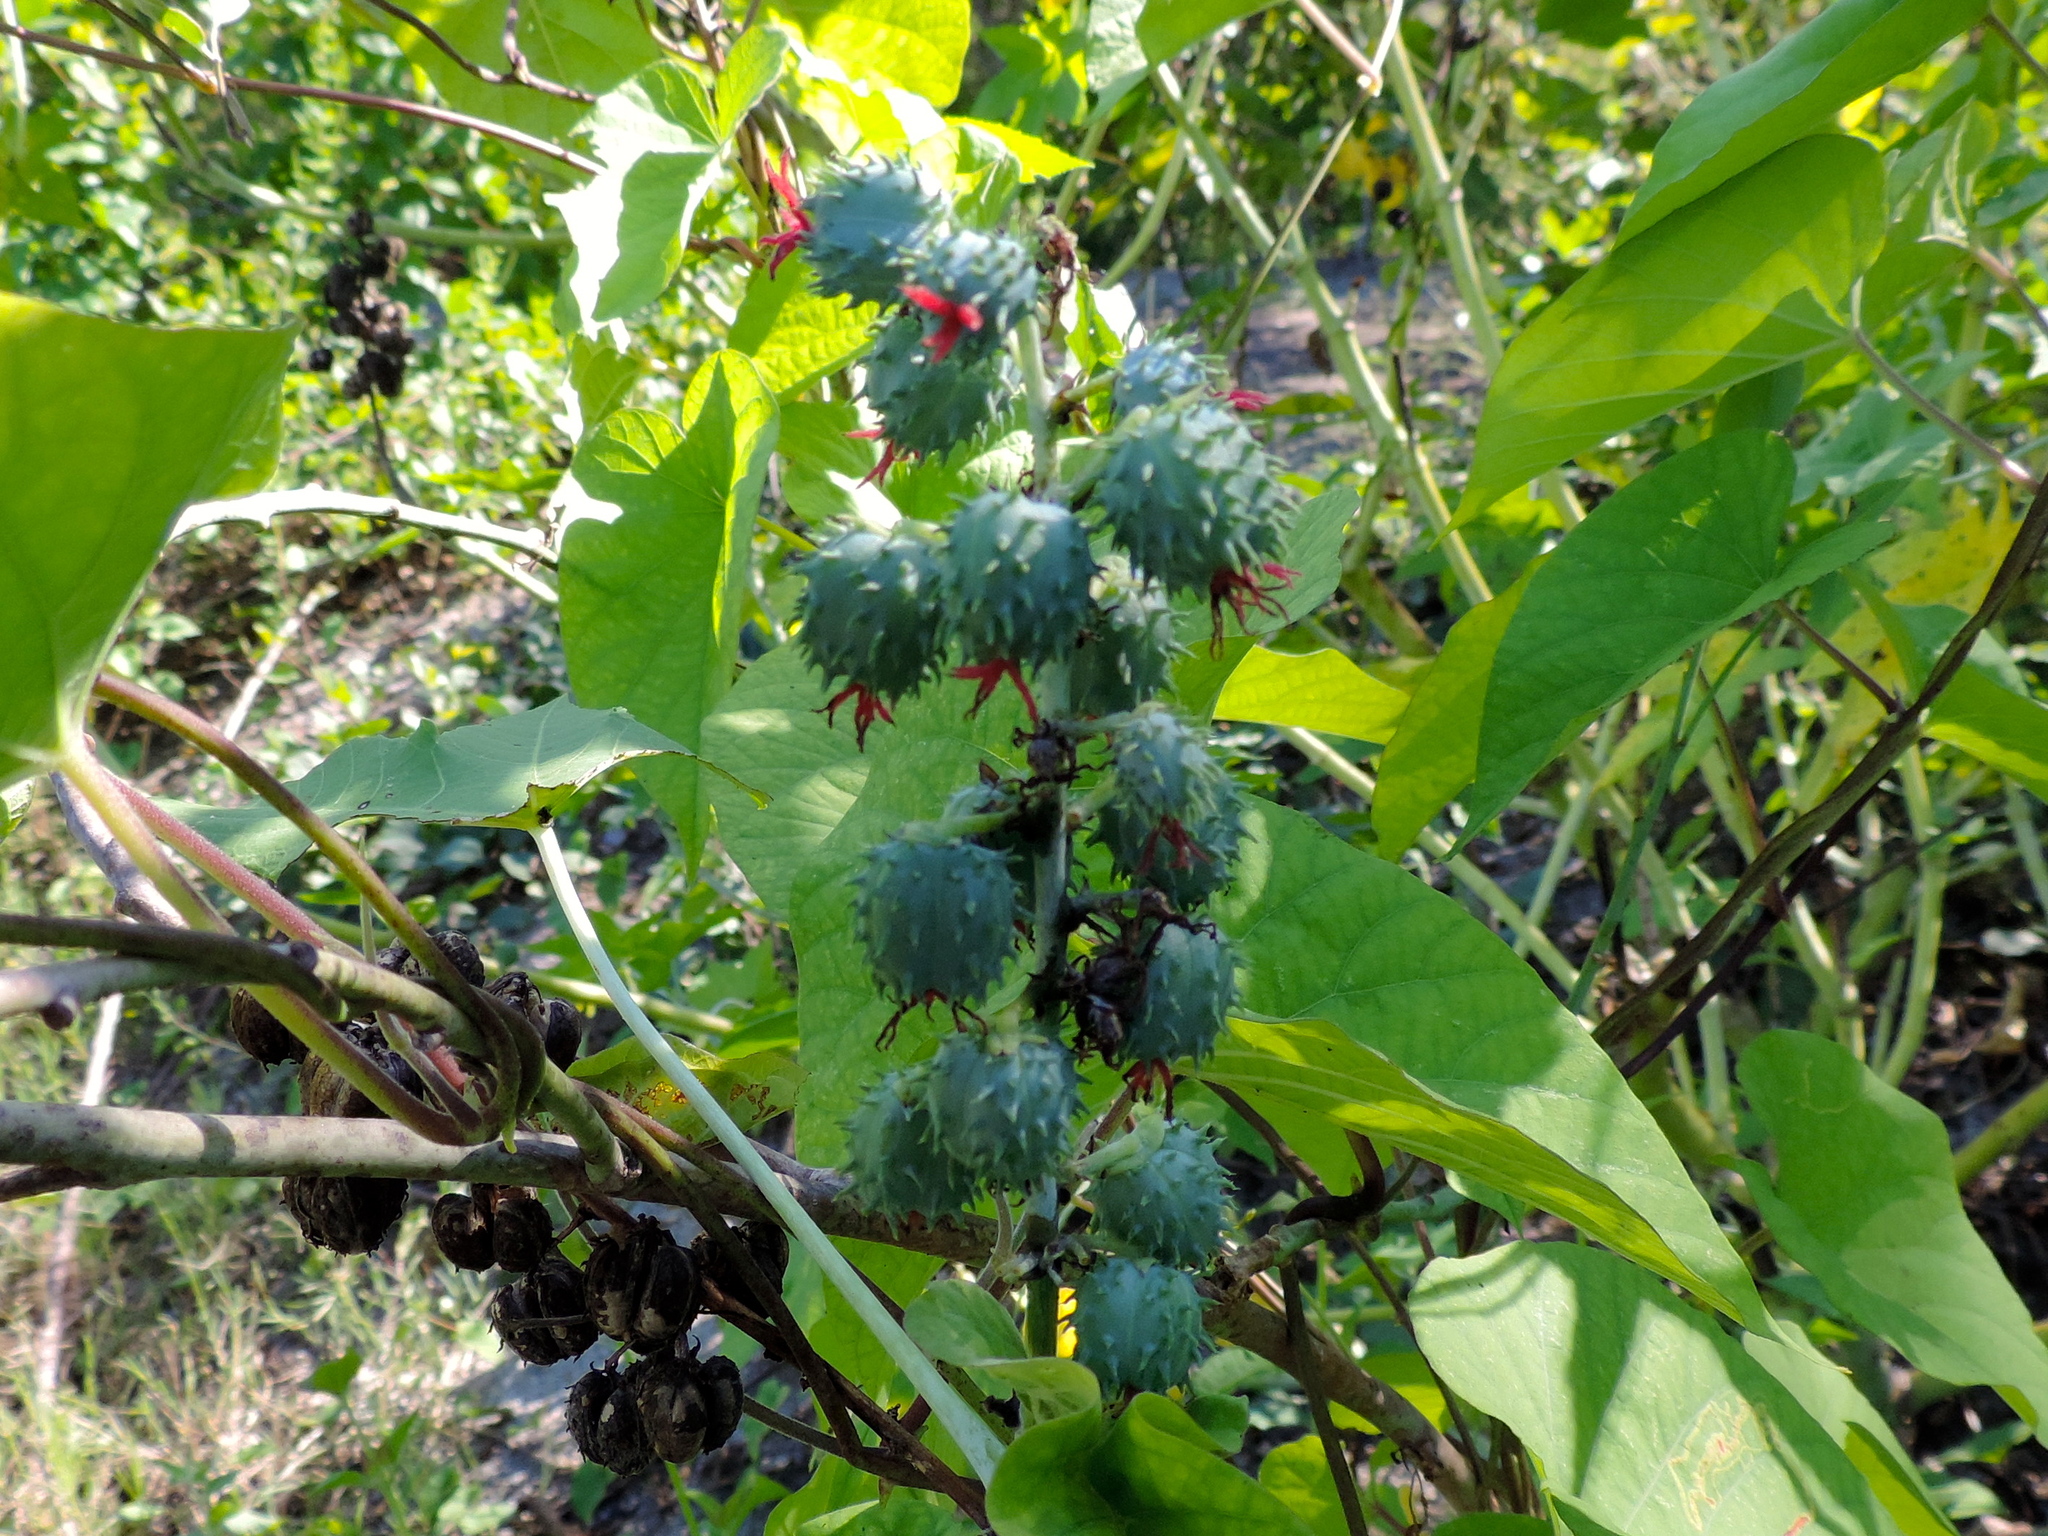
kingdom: Plantae
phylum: Tracheophyta
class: Magnoliopsida
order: Malpighiales
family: Euphorbiaceae
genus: Ricinus
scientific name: Ricinus communis
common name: Castor-oil-plant
